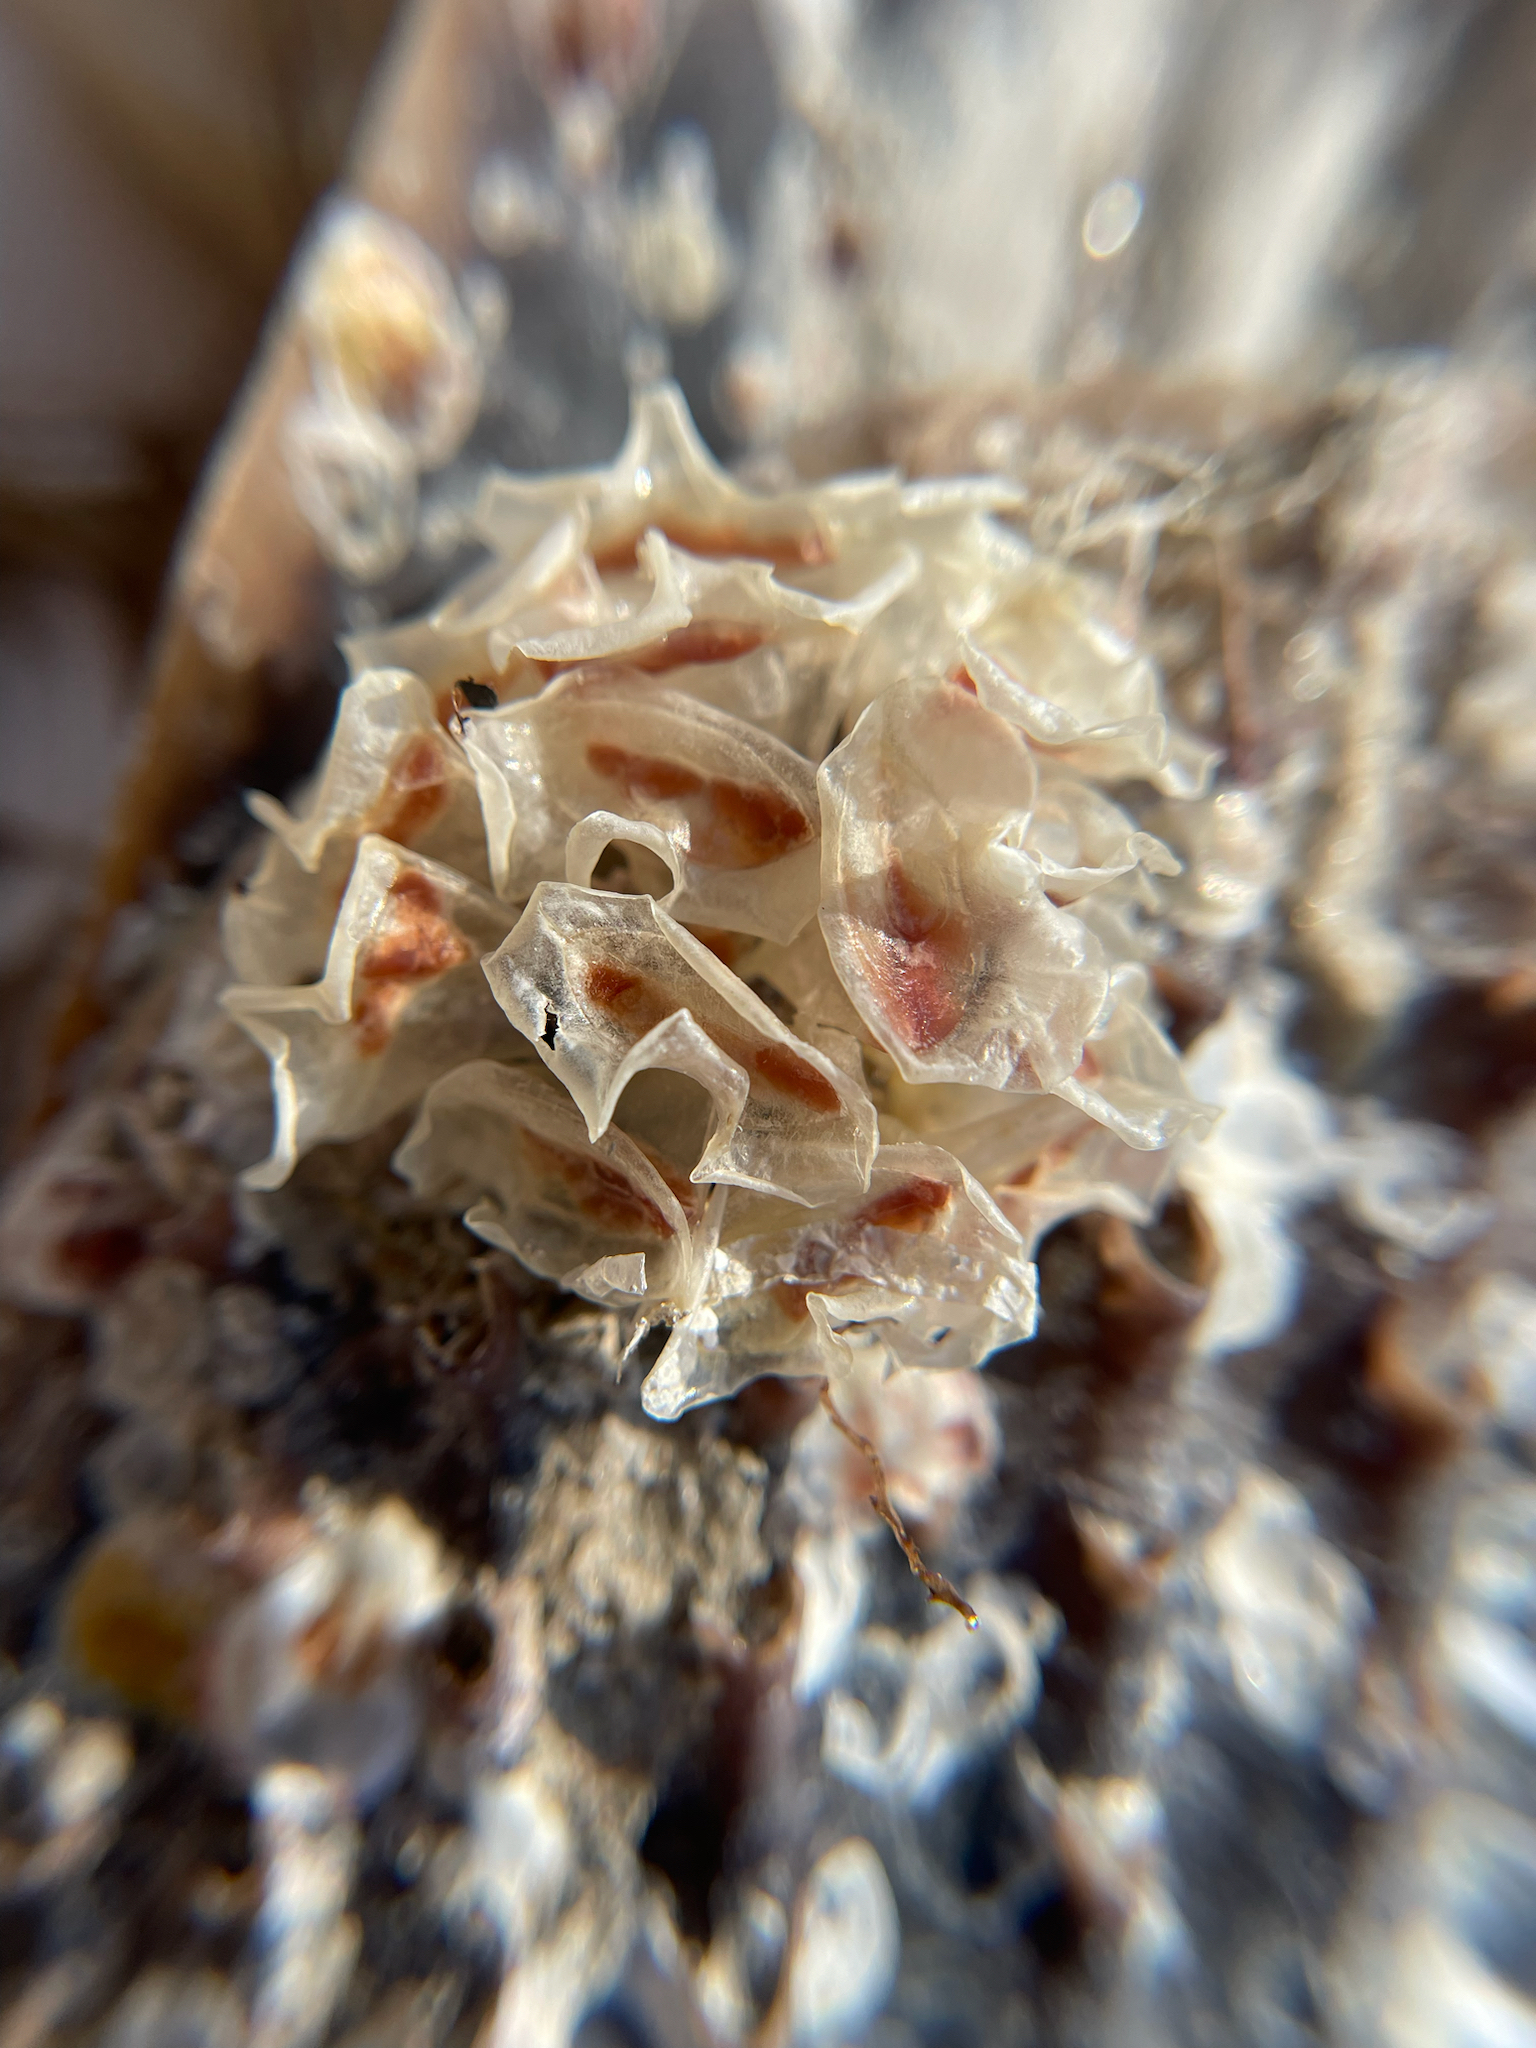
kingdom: Animalia
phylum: Mollusca
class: Gastropoda
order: Neogastropoda
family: Fasciolariidae
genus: Cinctura
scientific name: Cinctura hunteria
